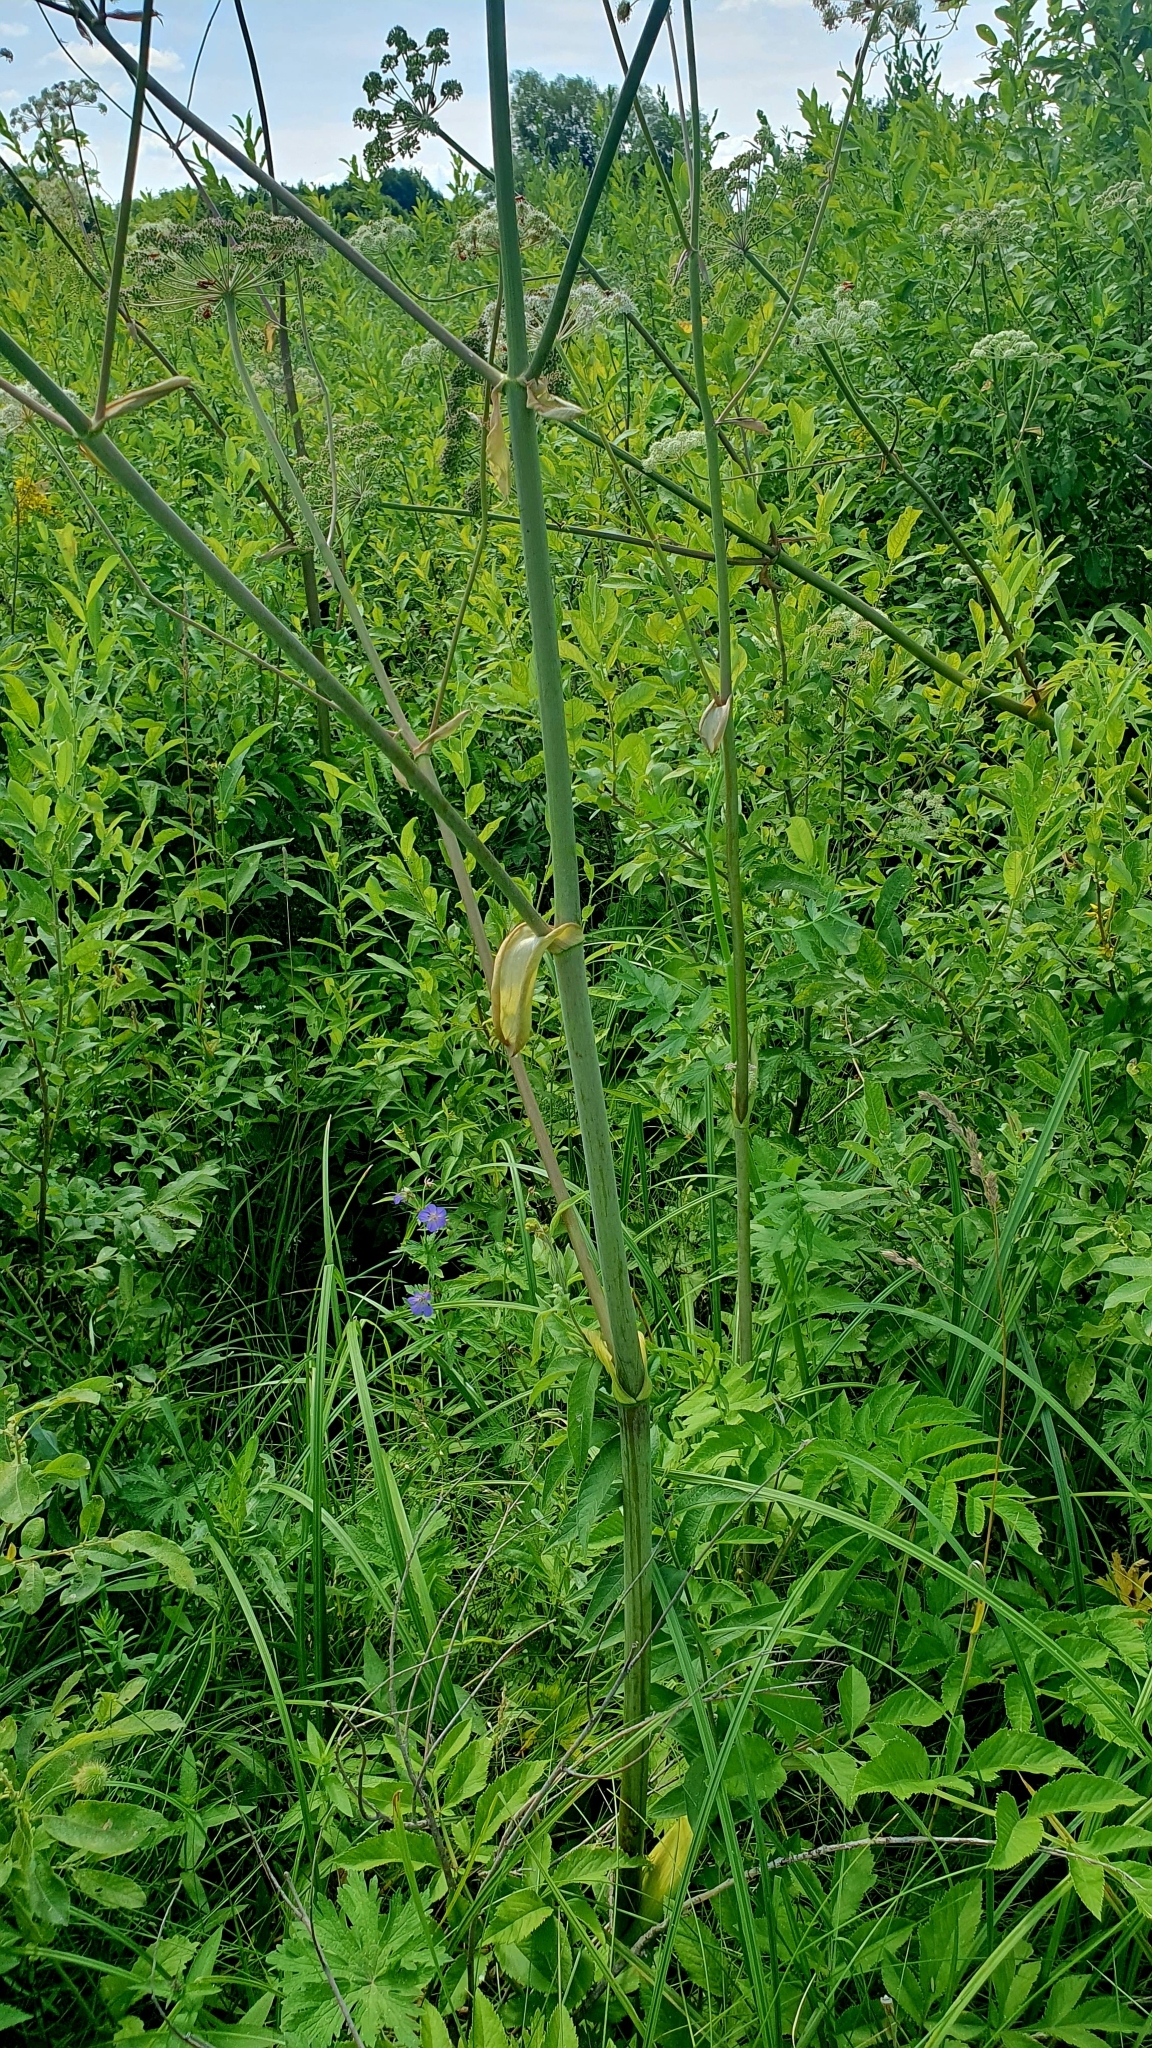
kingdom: Plantae
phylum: Tracheophyta
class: Magnoliopsida
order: Apiales
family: Apiaceae
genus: Angelica
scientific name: Angelica sylvestris
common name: Wild angelica
